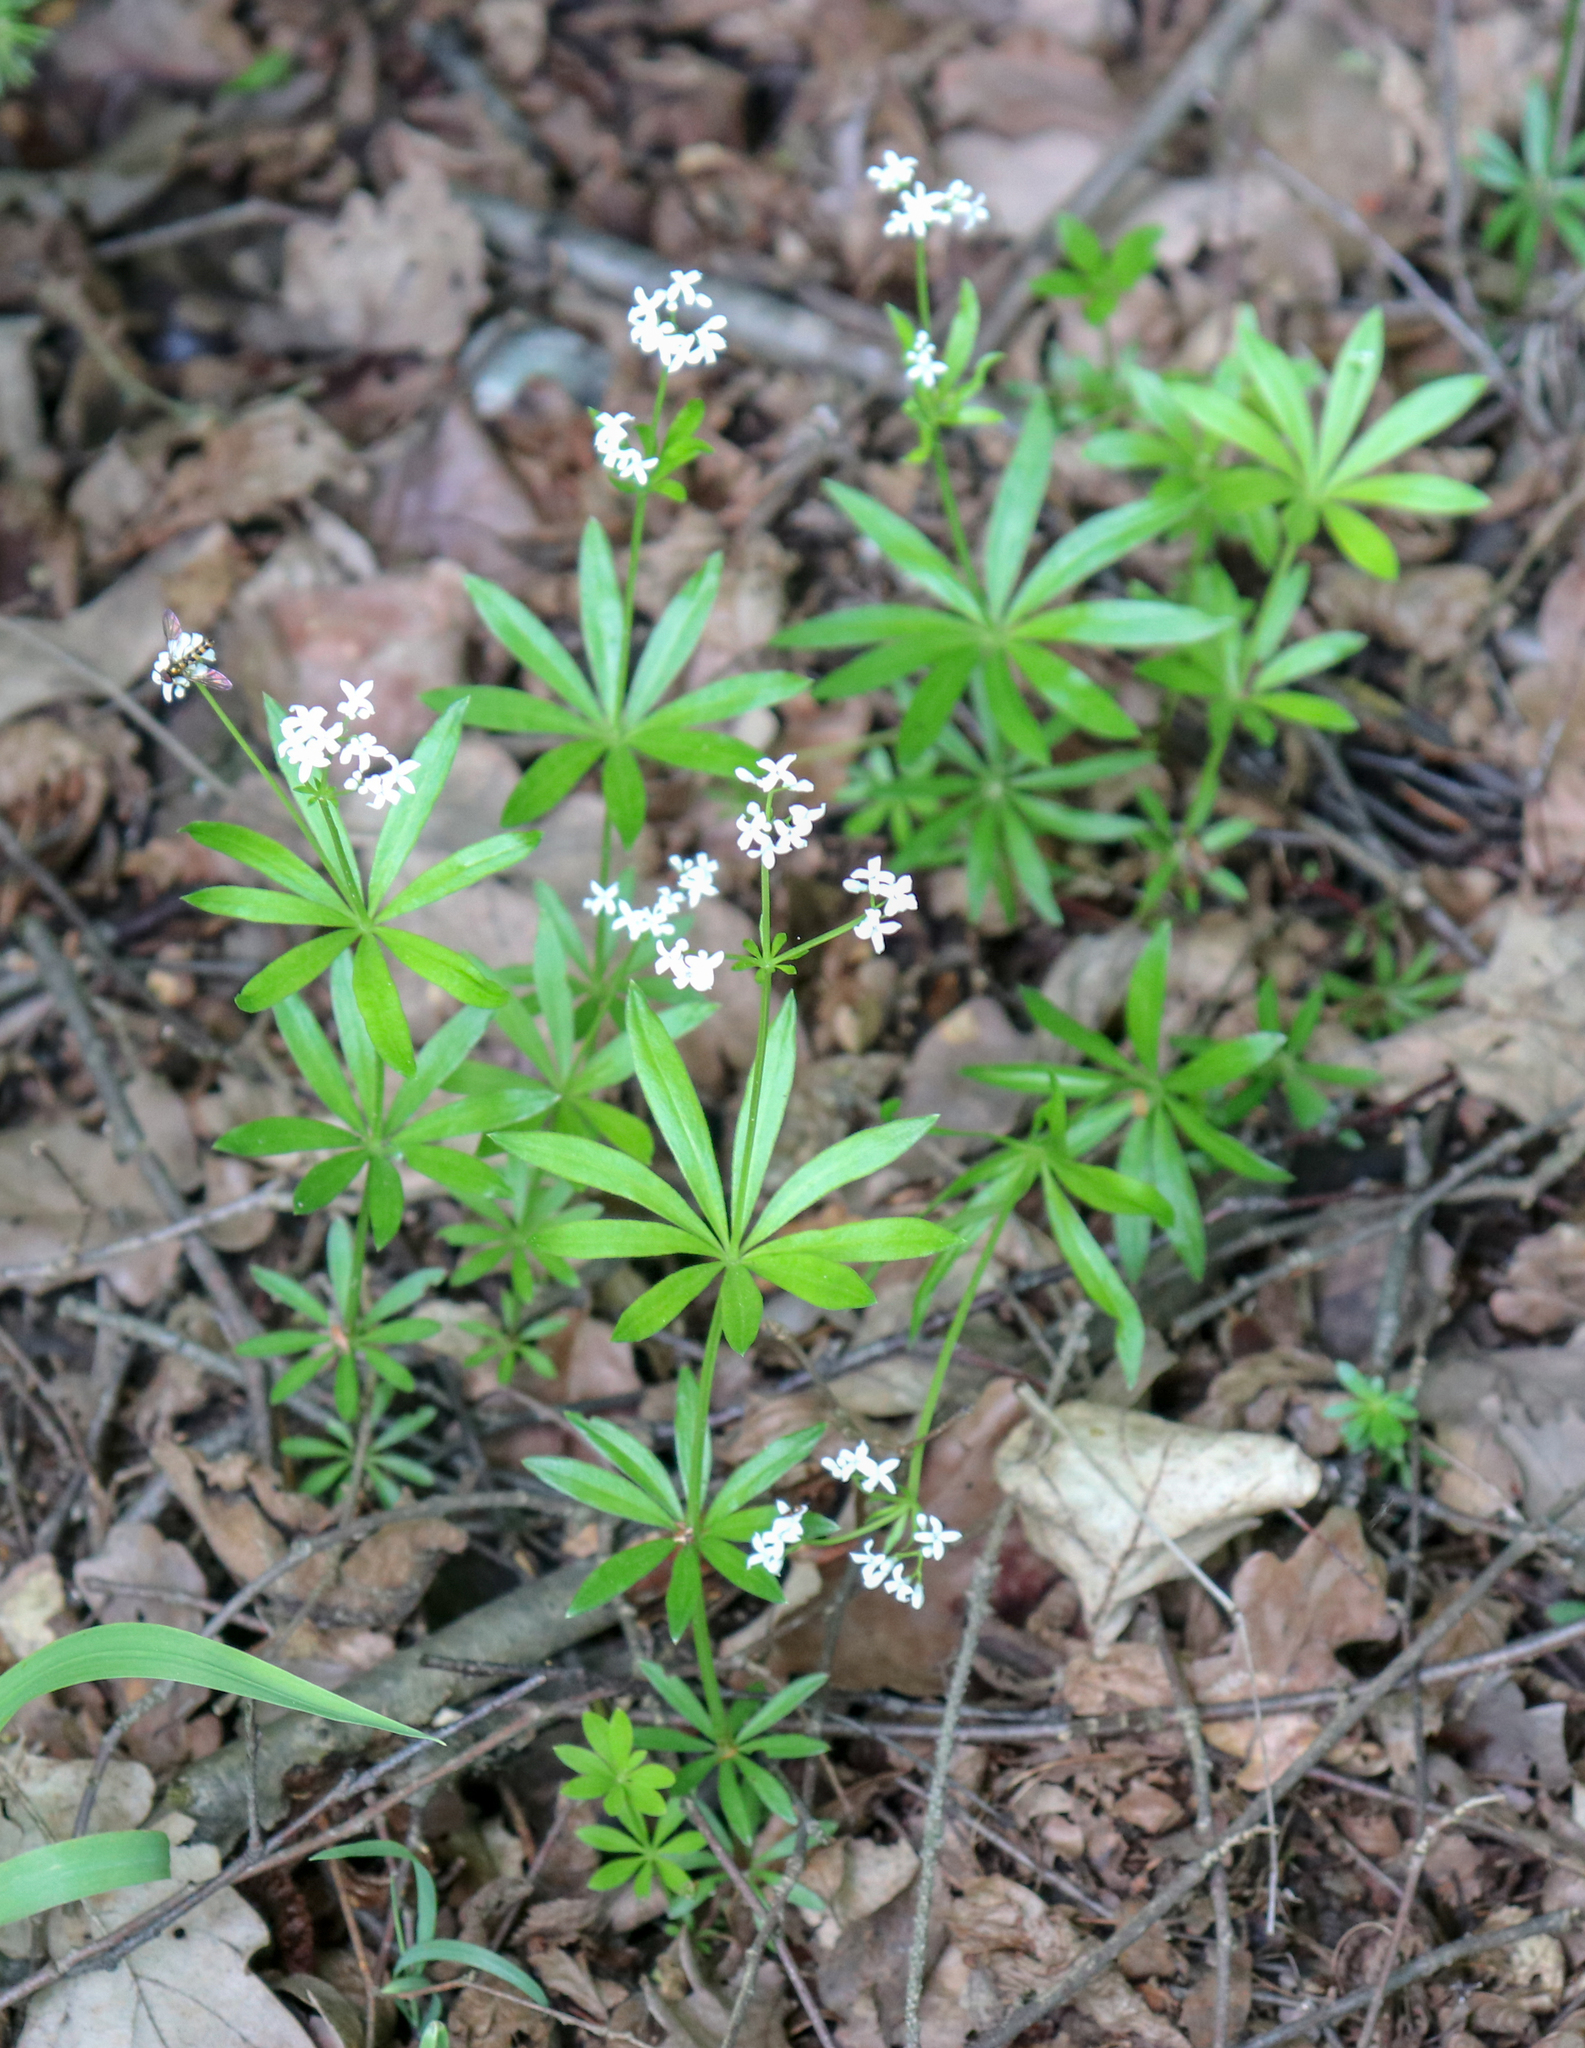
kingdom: Plantae
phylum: Tracheophyta
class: Magnoliopsida
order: Gentianales
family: Rubiaceae
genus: Galium
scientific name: Galium odoratum
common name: Sweet woodruff
